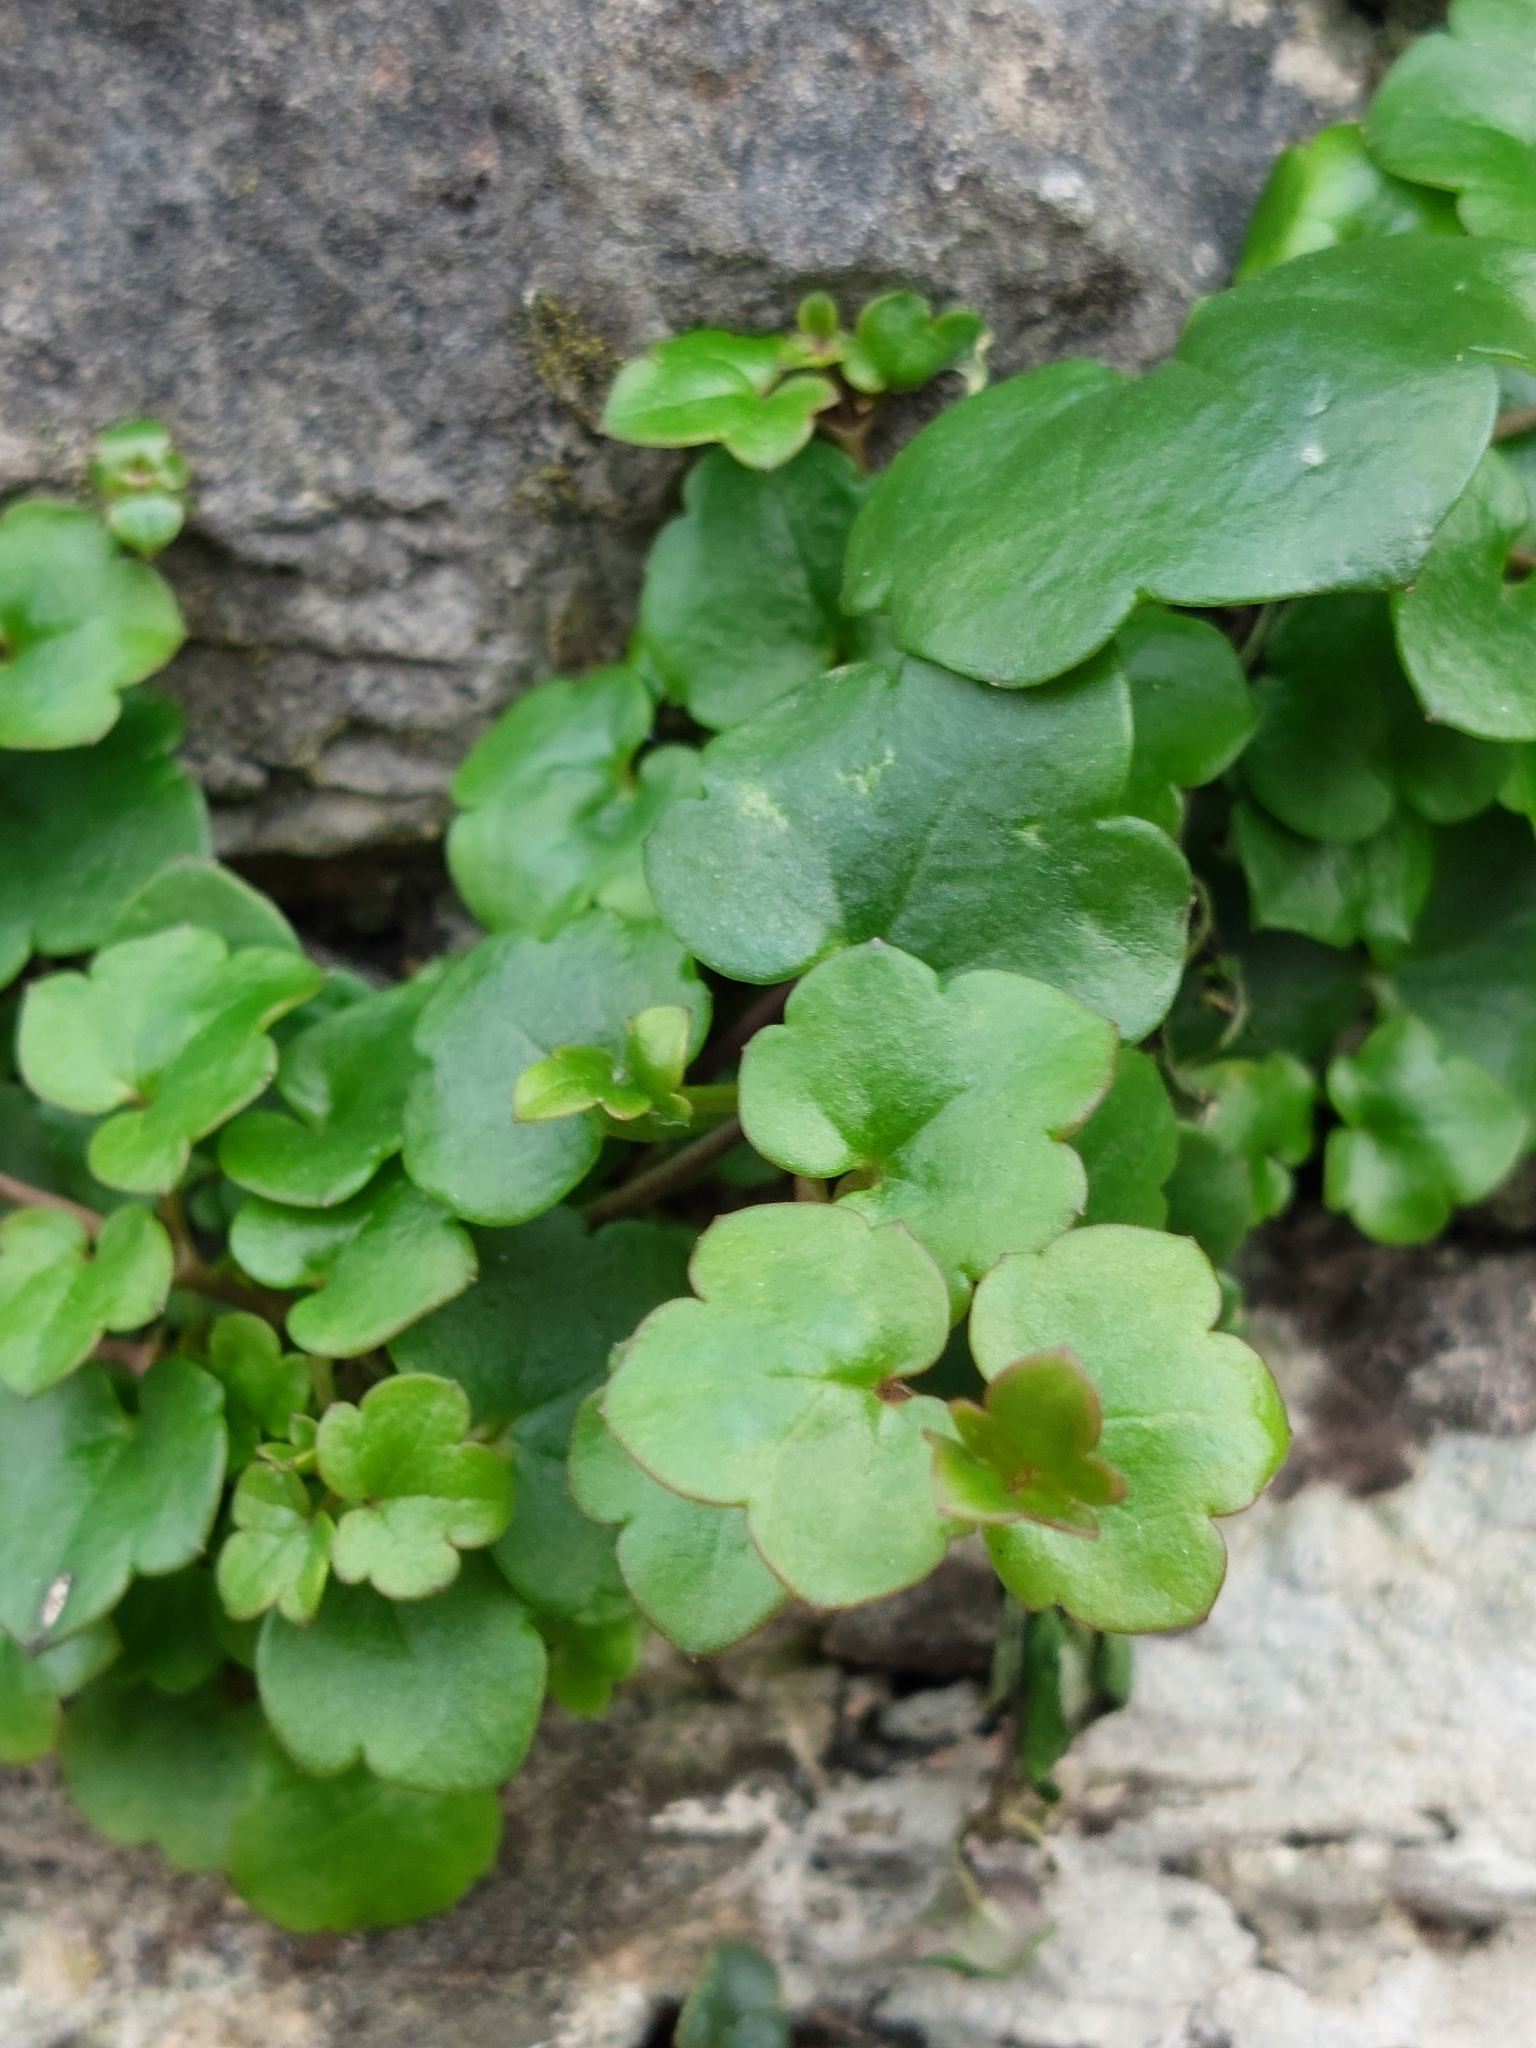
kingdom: Plantae
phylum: Tracheophyta
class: Magnoliopsida
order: Lamiales
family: Plantaginaceae
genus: Cymbalaria
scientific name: Cymbalaria muralis
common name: Ivy-leaved toadflax
